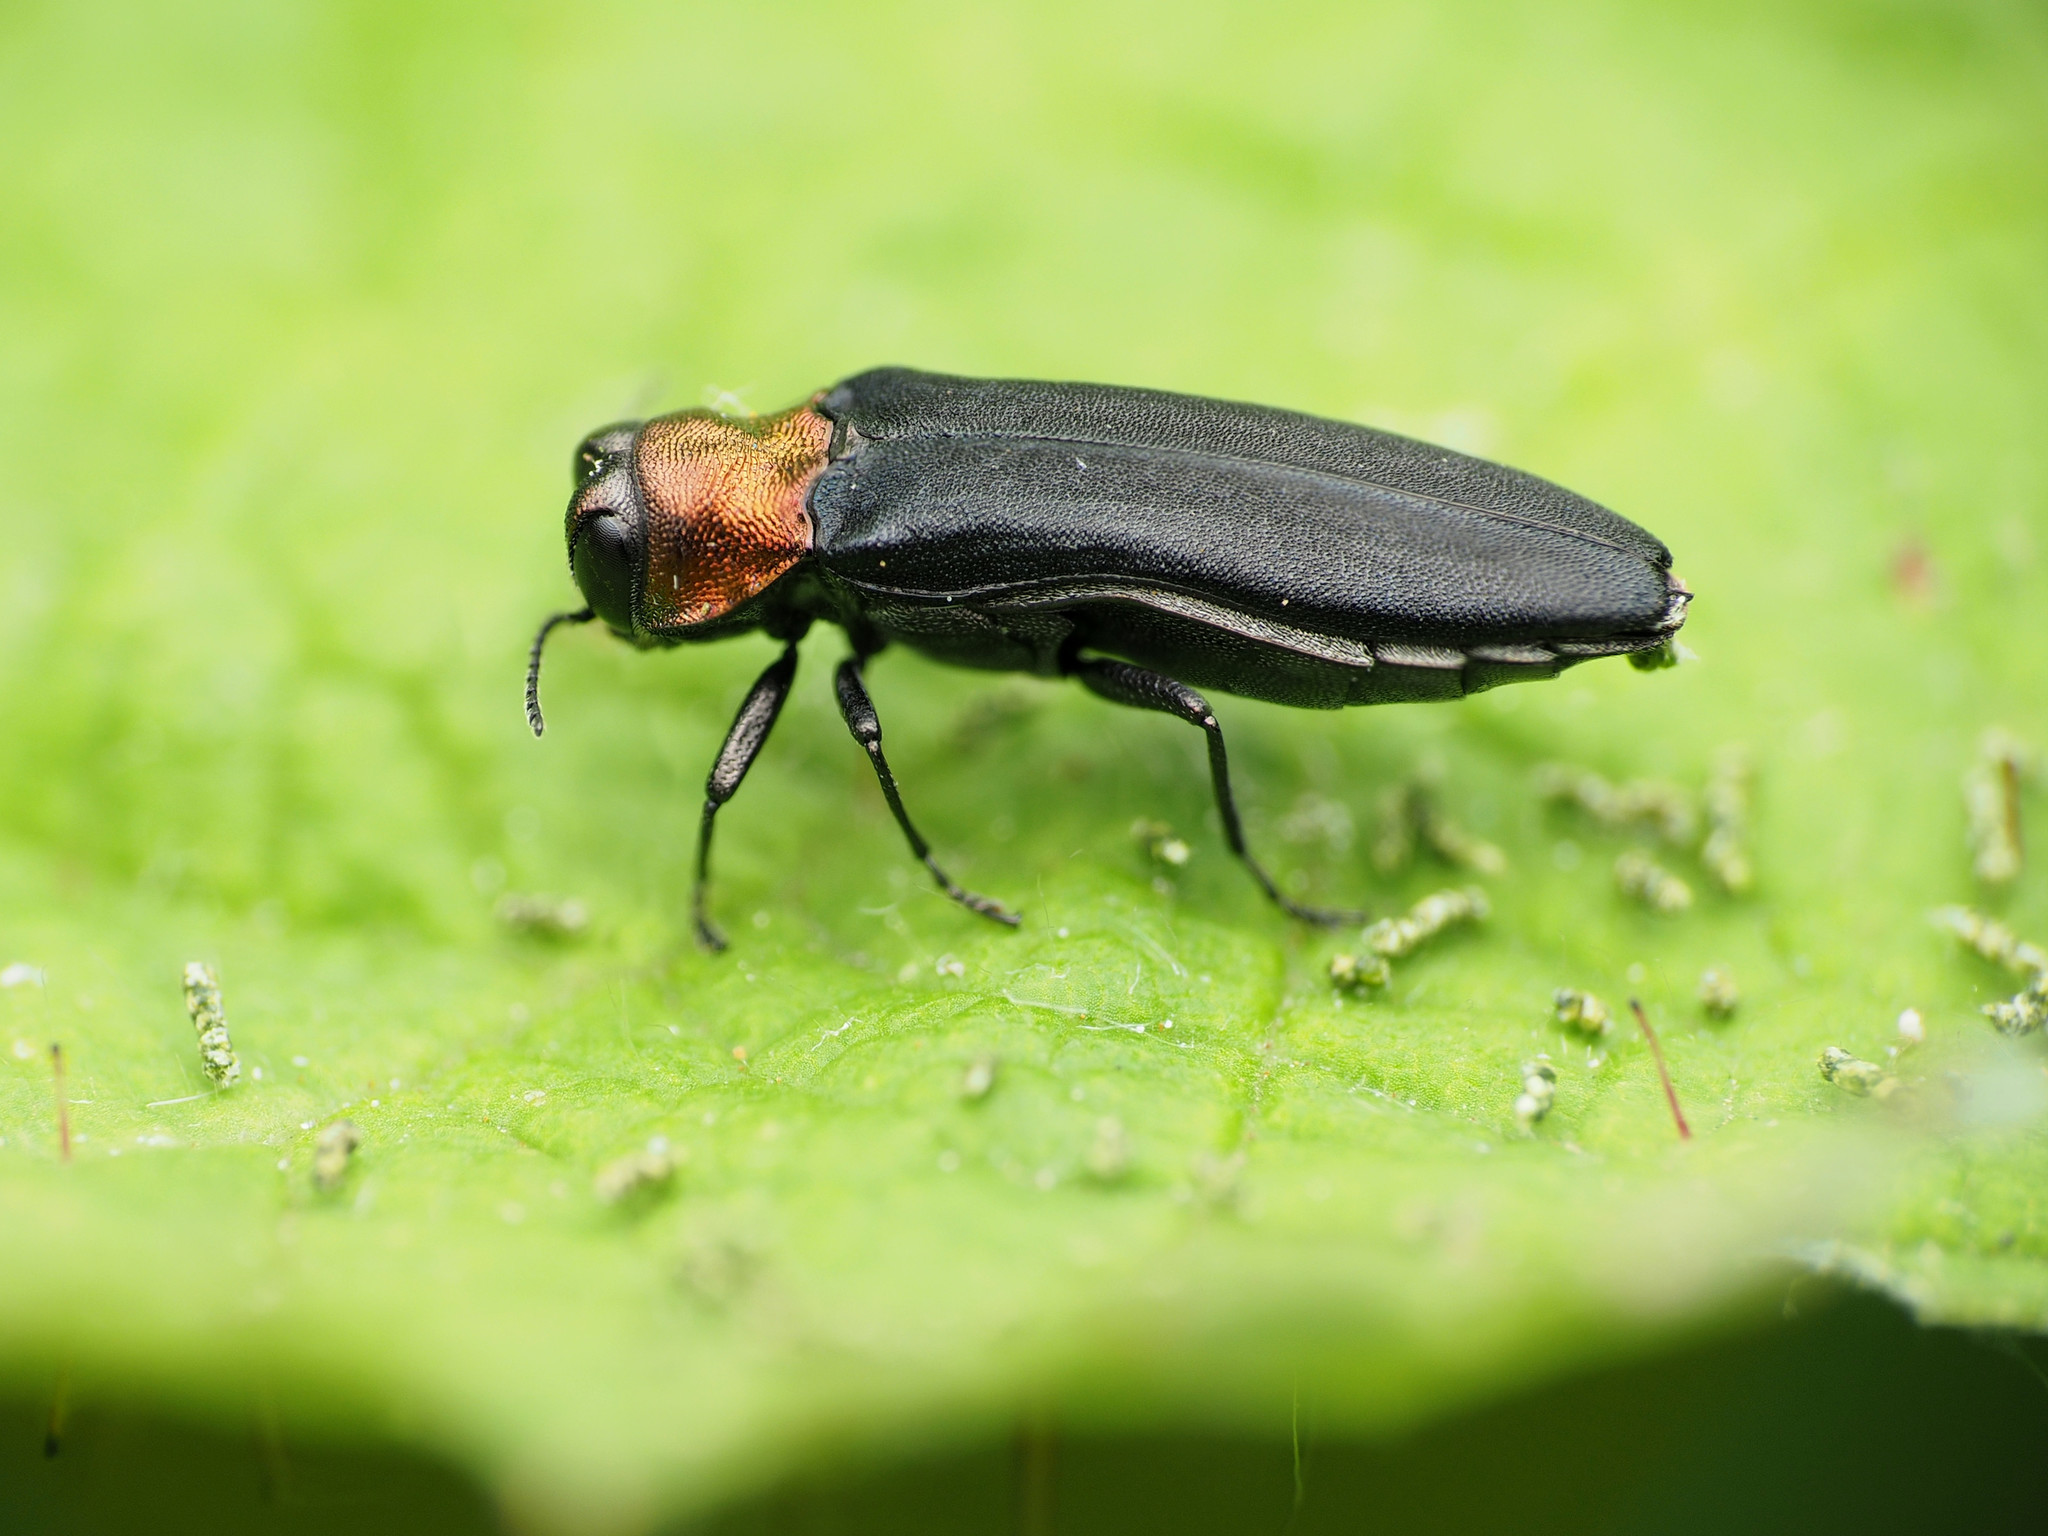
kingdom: Animalia
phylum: Arthropoda
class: Insecta
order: Coleoptera
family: Buprestidae
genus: Agrilus
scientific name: Agrilus ruficollis
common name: Red-necked cane borer beetle
